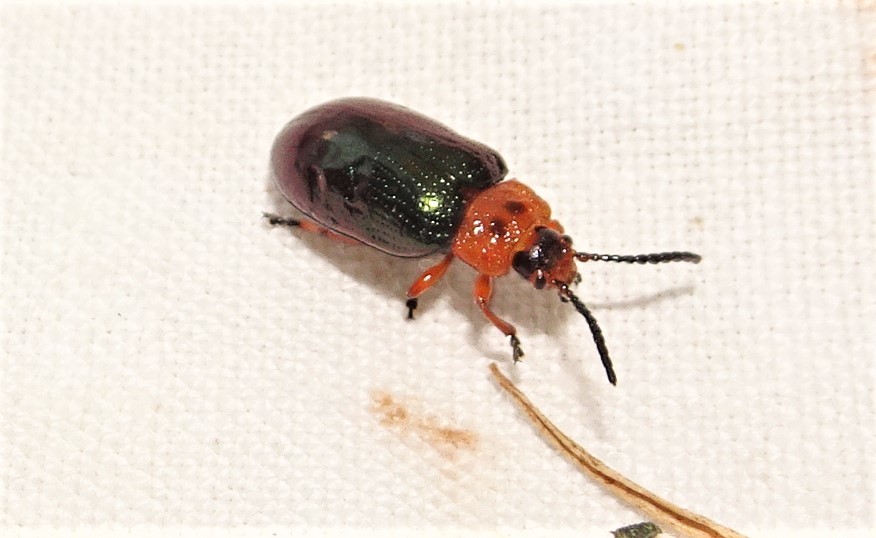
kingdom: Animalia
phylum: Arthropoda
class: Insecta
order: Coleoptera
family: Chrysomelidae
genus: Lamprolina
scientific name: Lamprolina
